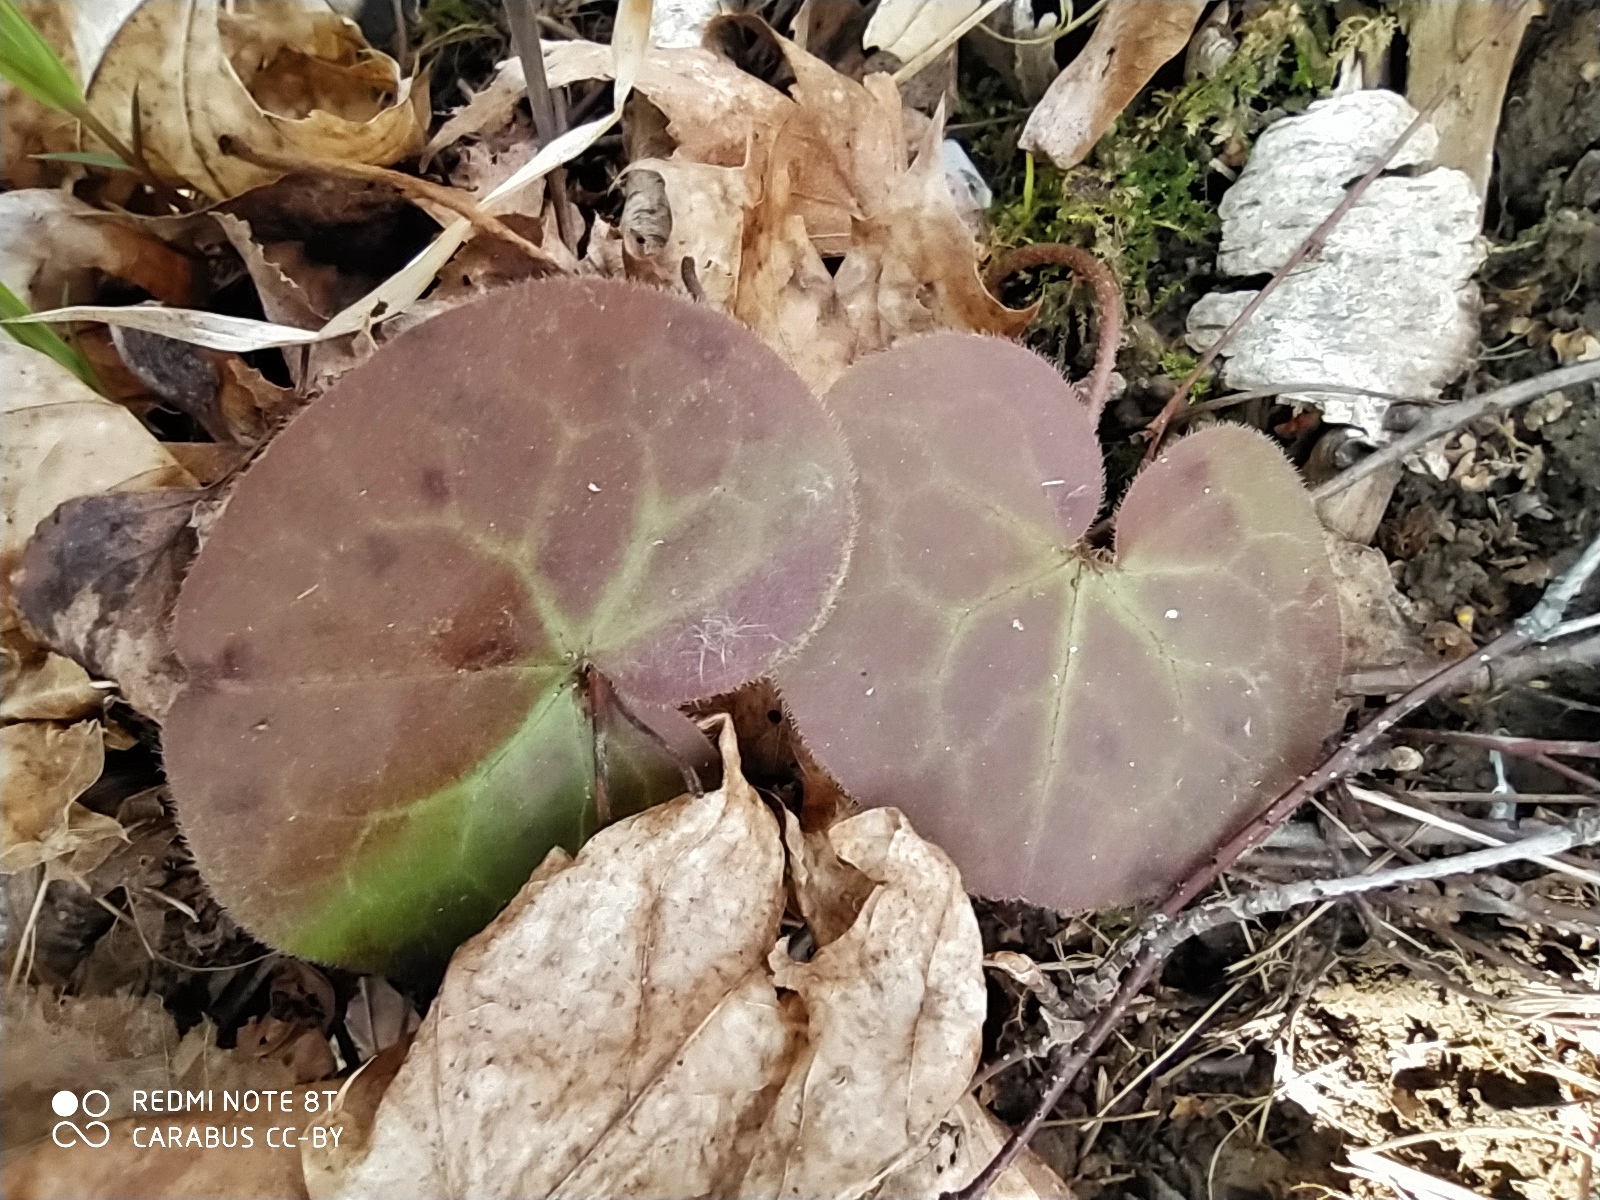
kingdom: Plantae
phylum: Tracheophyta
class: Magnoliopsida
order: Piperales
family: Aristolochiaceae
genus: Asarum
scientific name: Asarum europaeum
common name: Asarabacca
